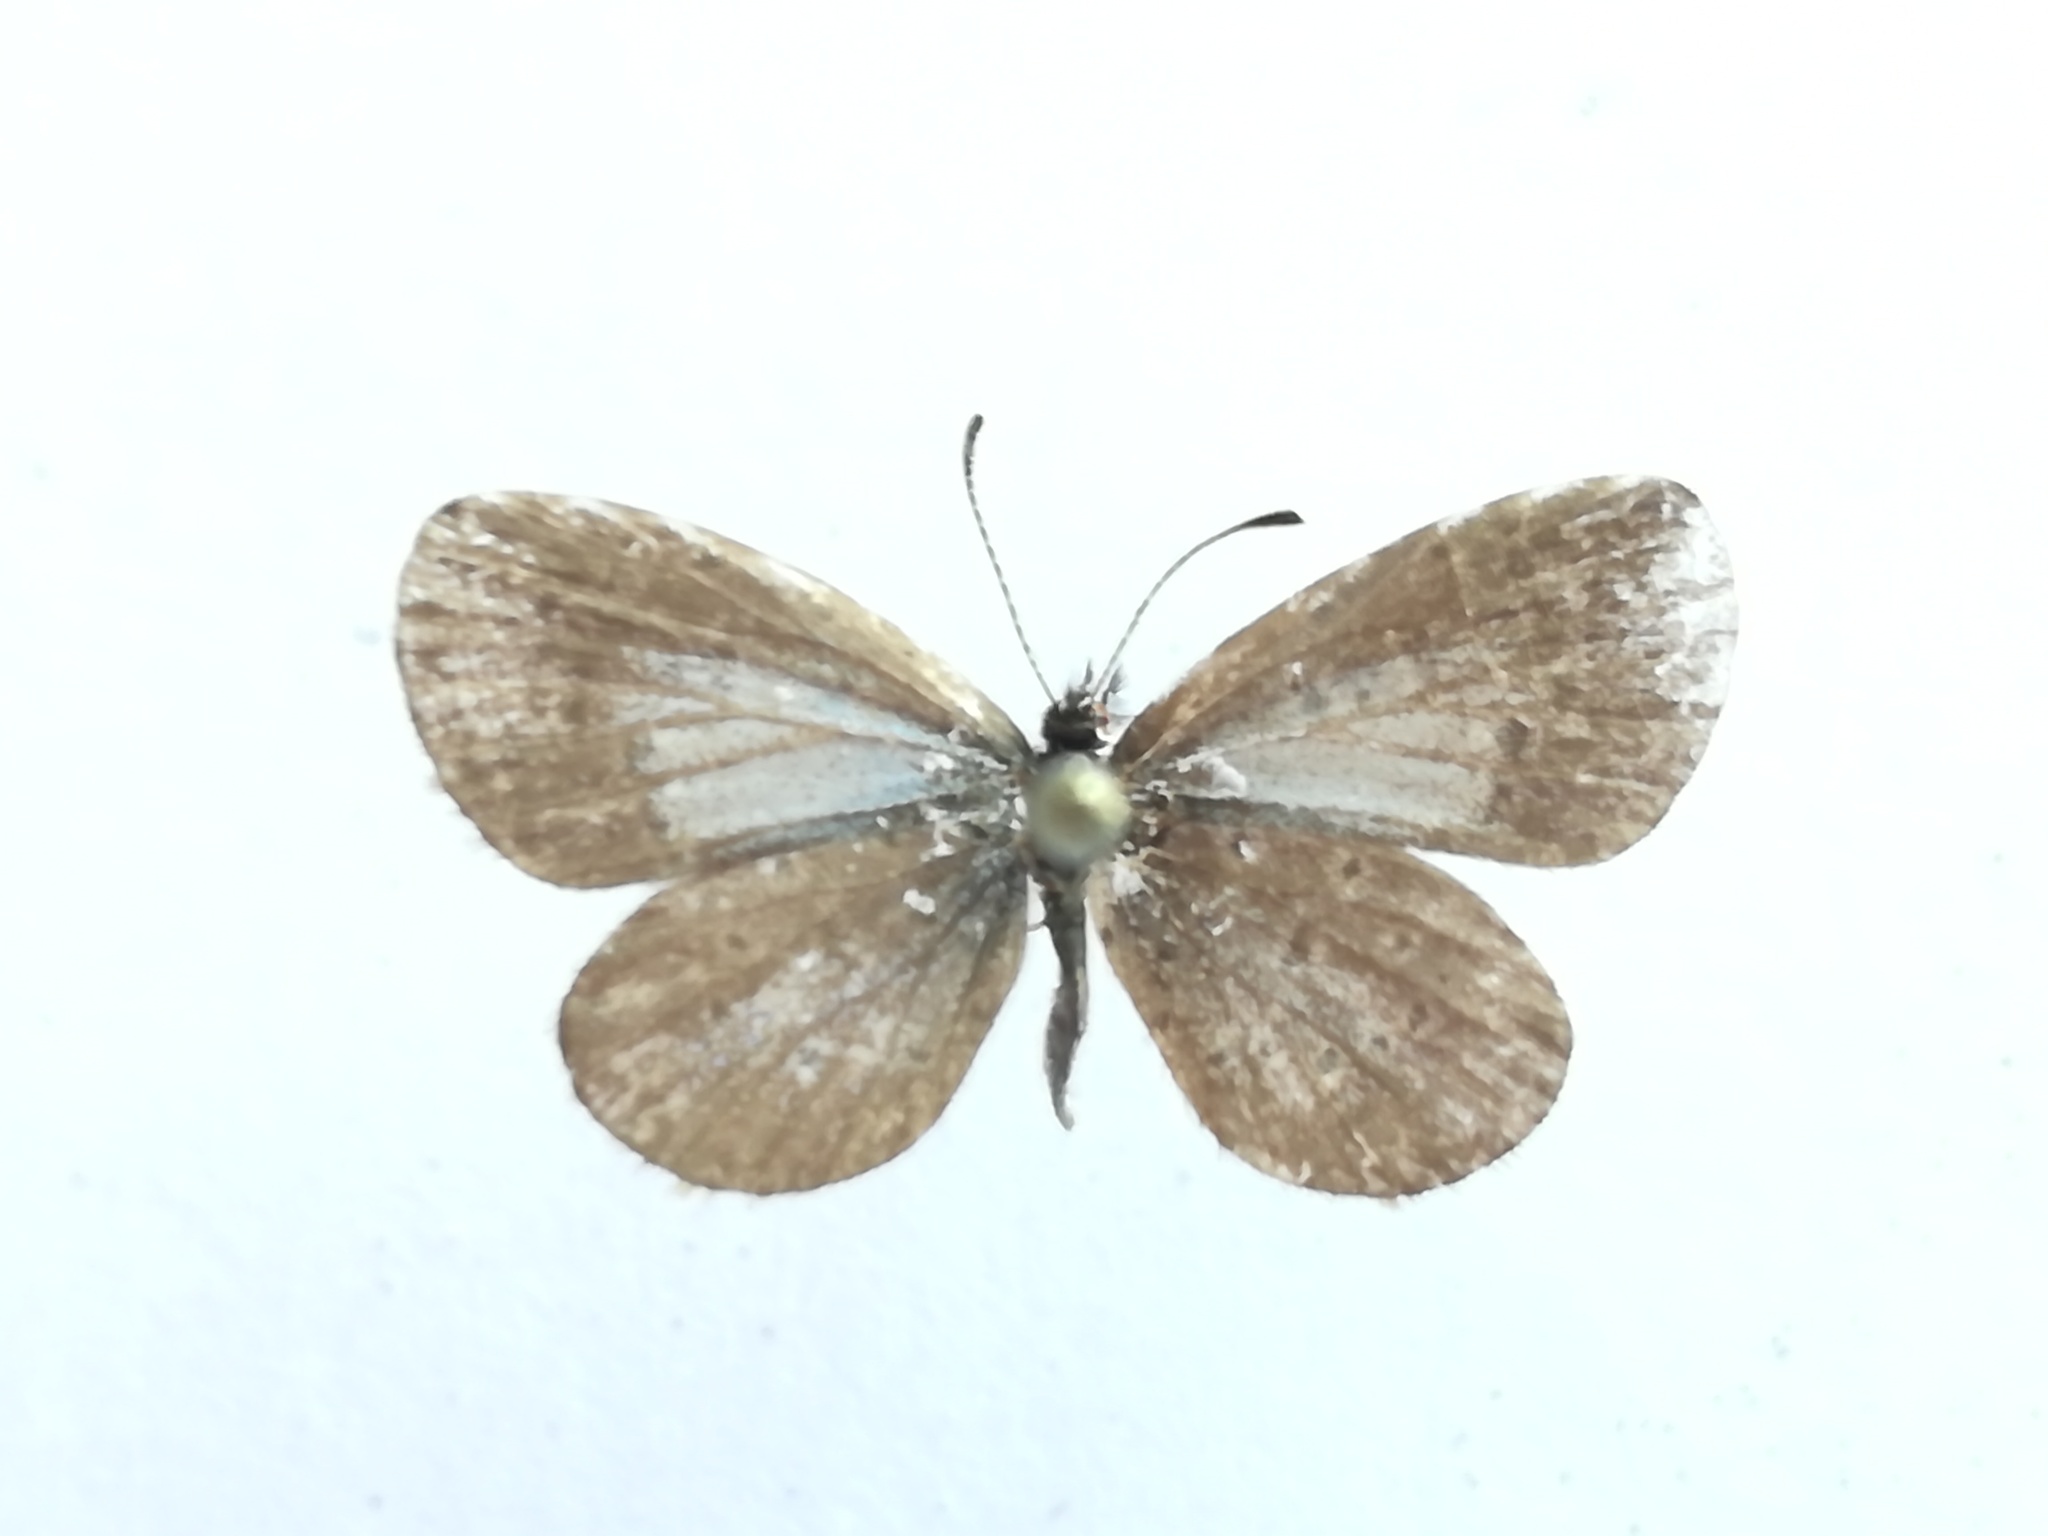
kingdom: Animalia
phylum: Arthropoda
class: Insecta
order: Lepidoptera
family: Lycaenidae
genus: Lycaena
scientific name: Lycaena cyna
